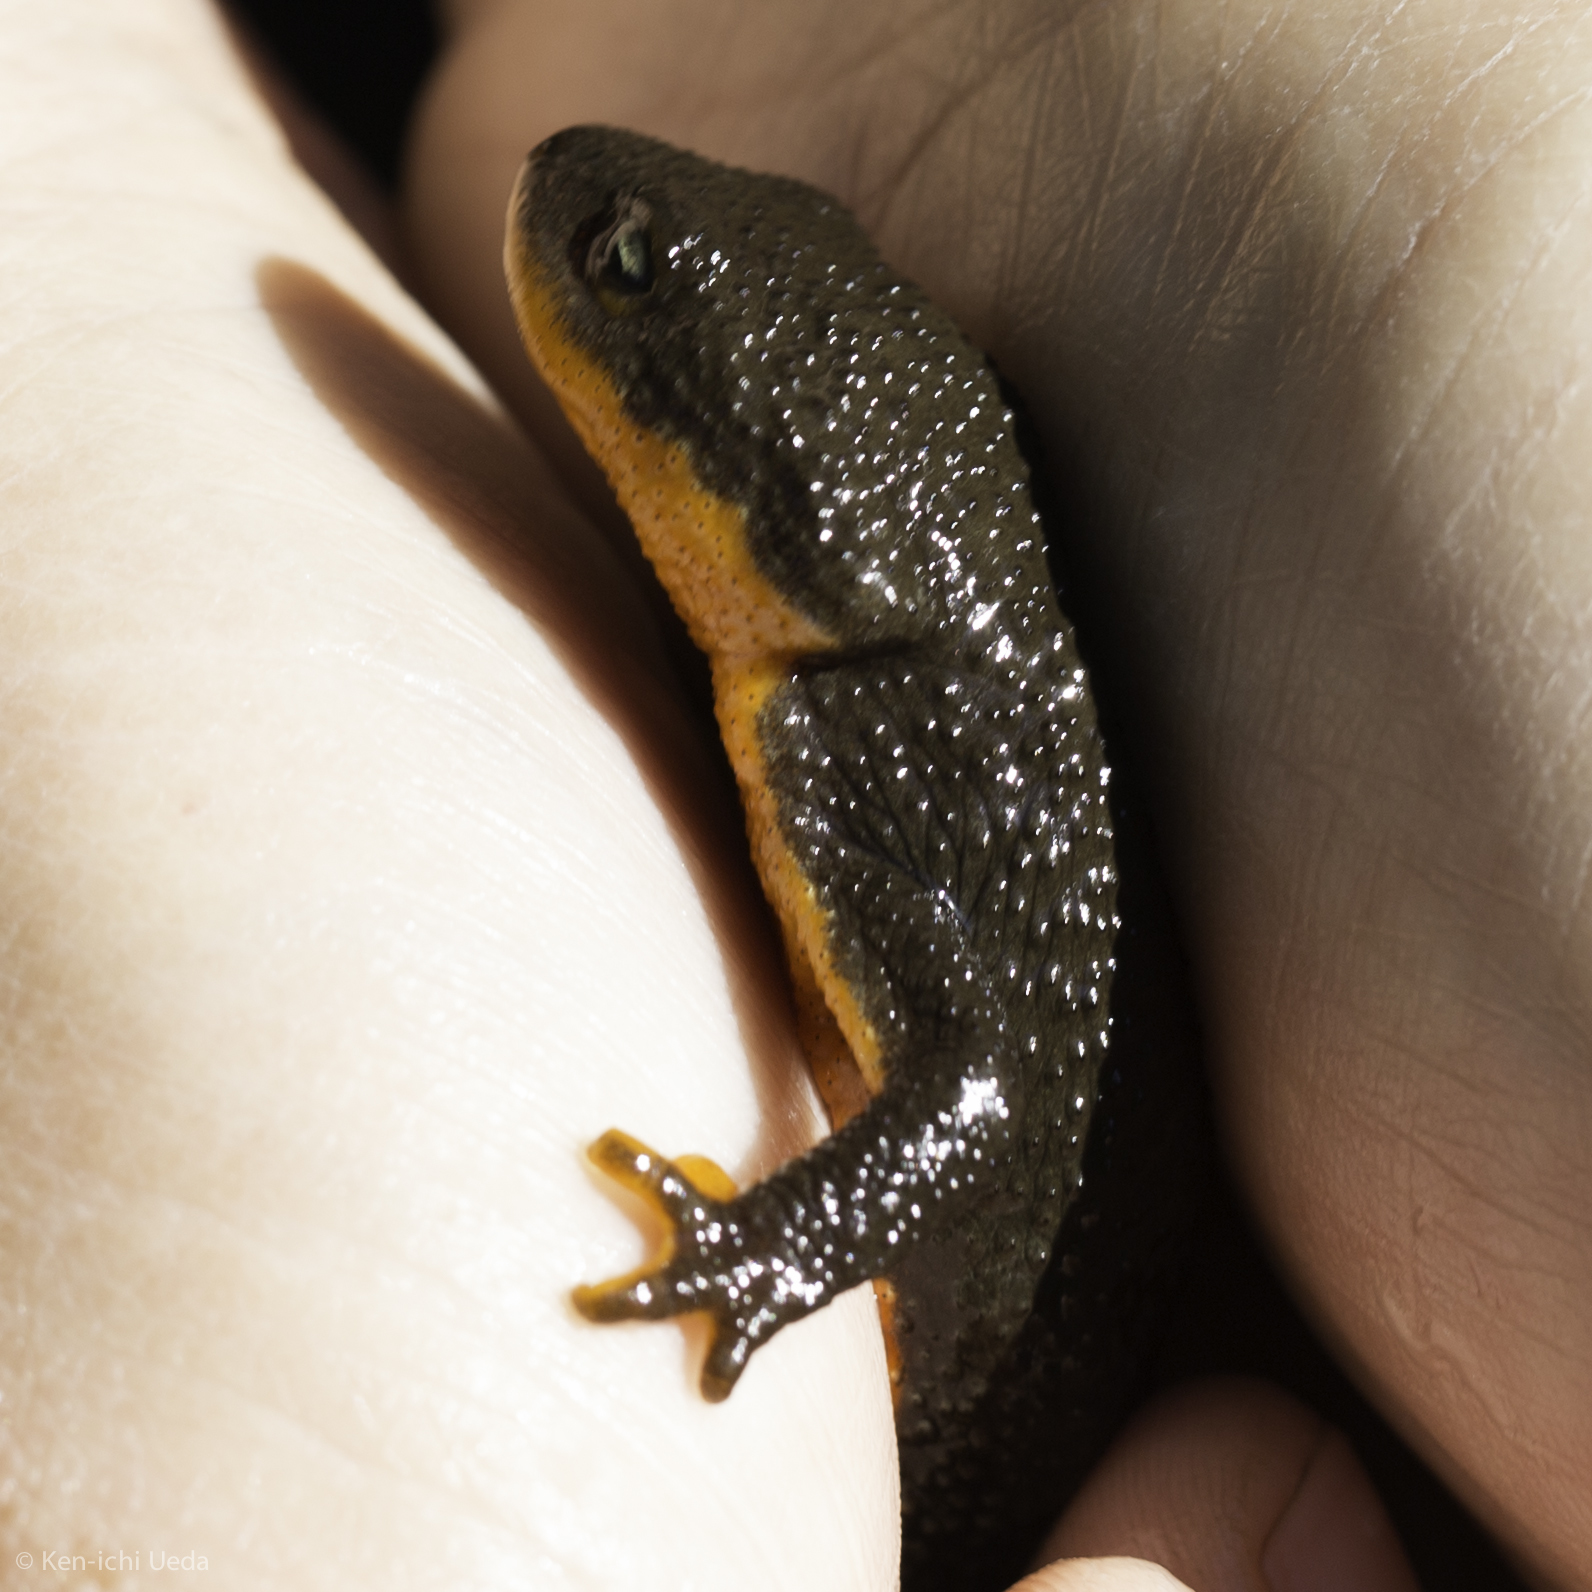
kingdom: Animalia
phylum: Chordata
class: Amphibia
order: Caudata
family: Salamandridae
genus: Taricha
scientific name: Taricha granulosa
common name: Roughskin newt
